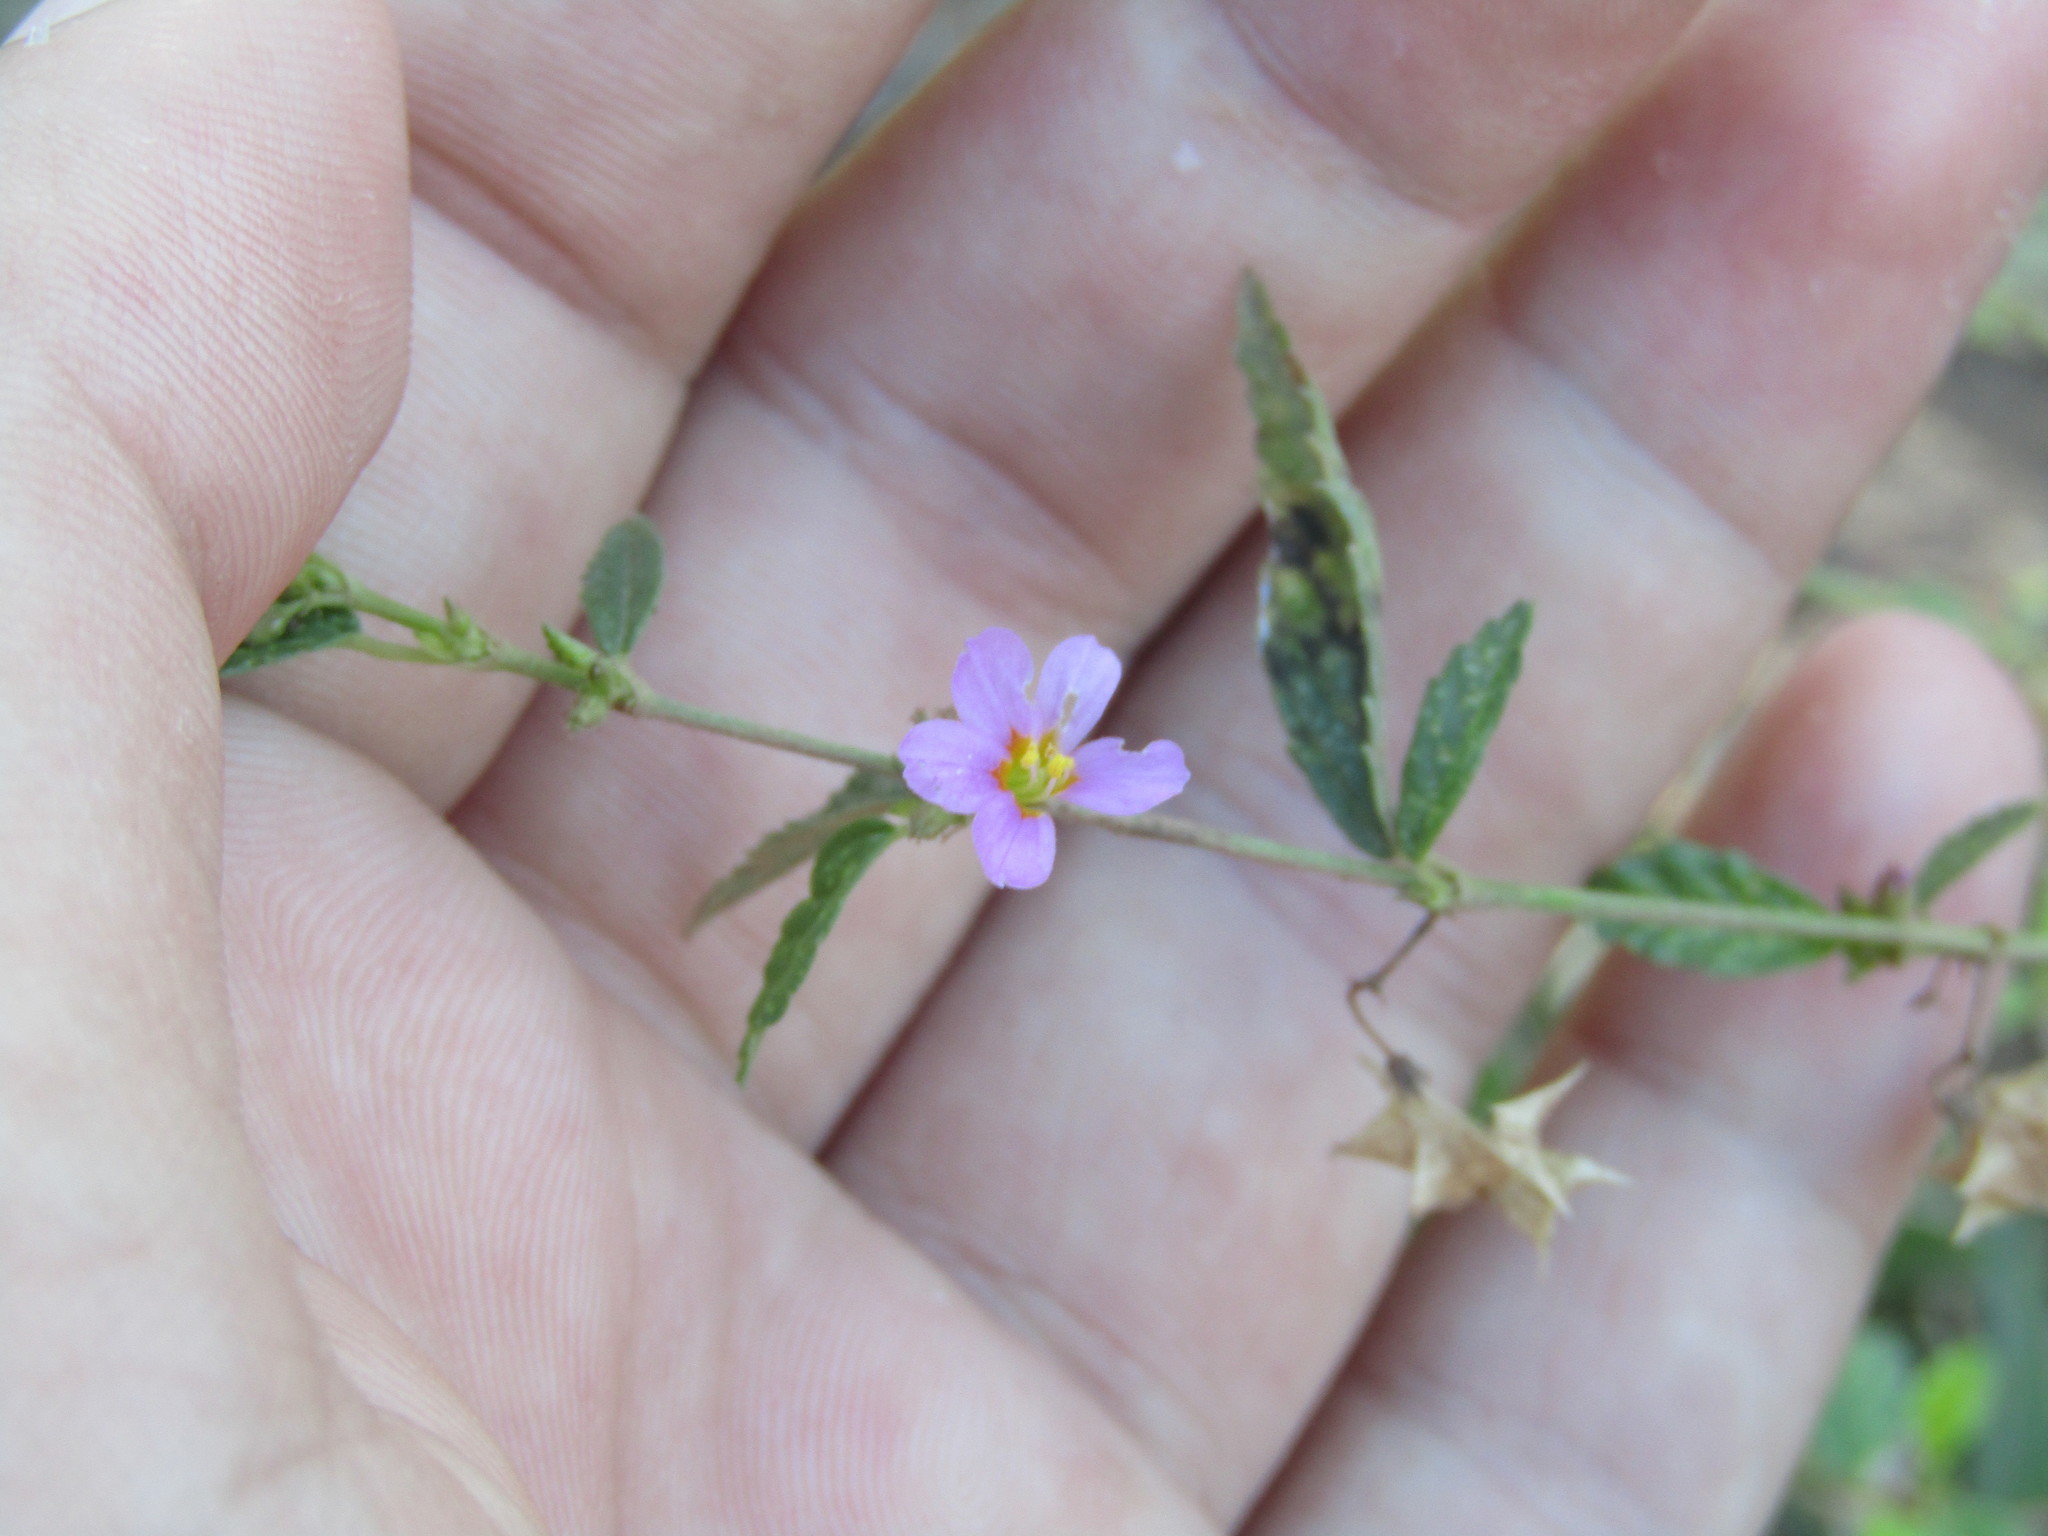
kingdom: Plantae
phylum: Tracheophyta
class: Magnoliopsida
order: Malvales
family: Malvaceae
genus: Melochia
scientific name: Melochia pyramidata
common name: Pyramidflower
